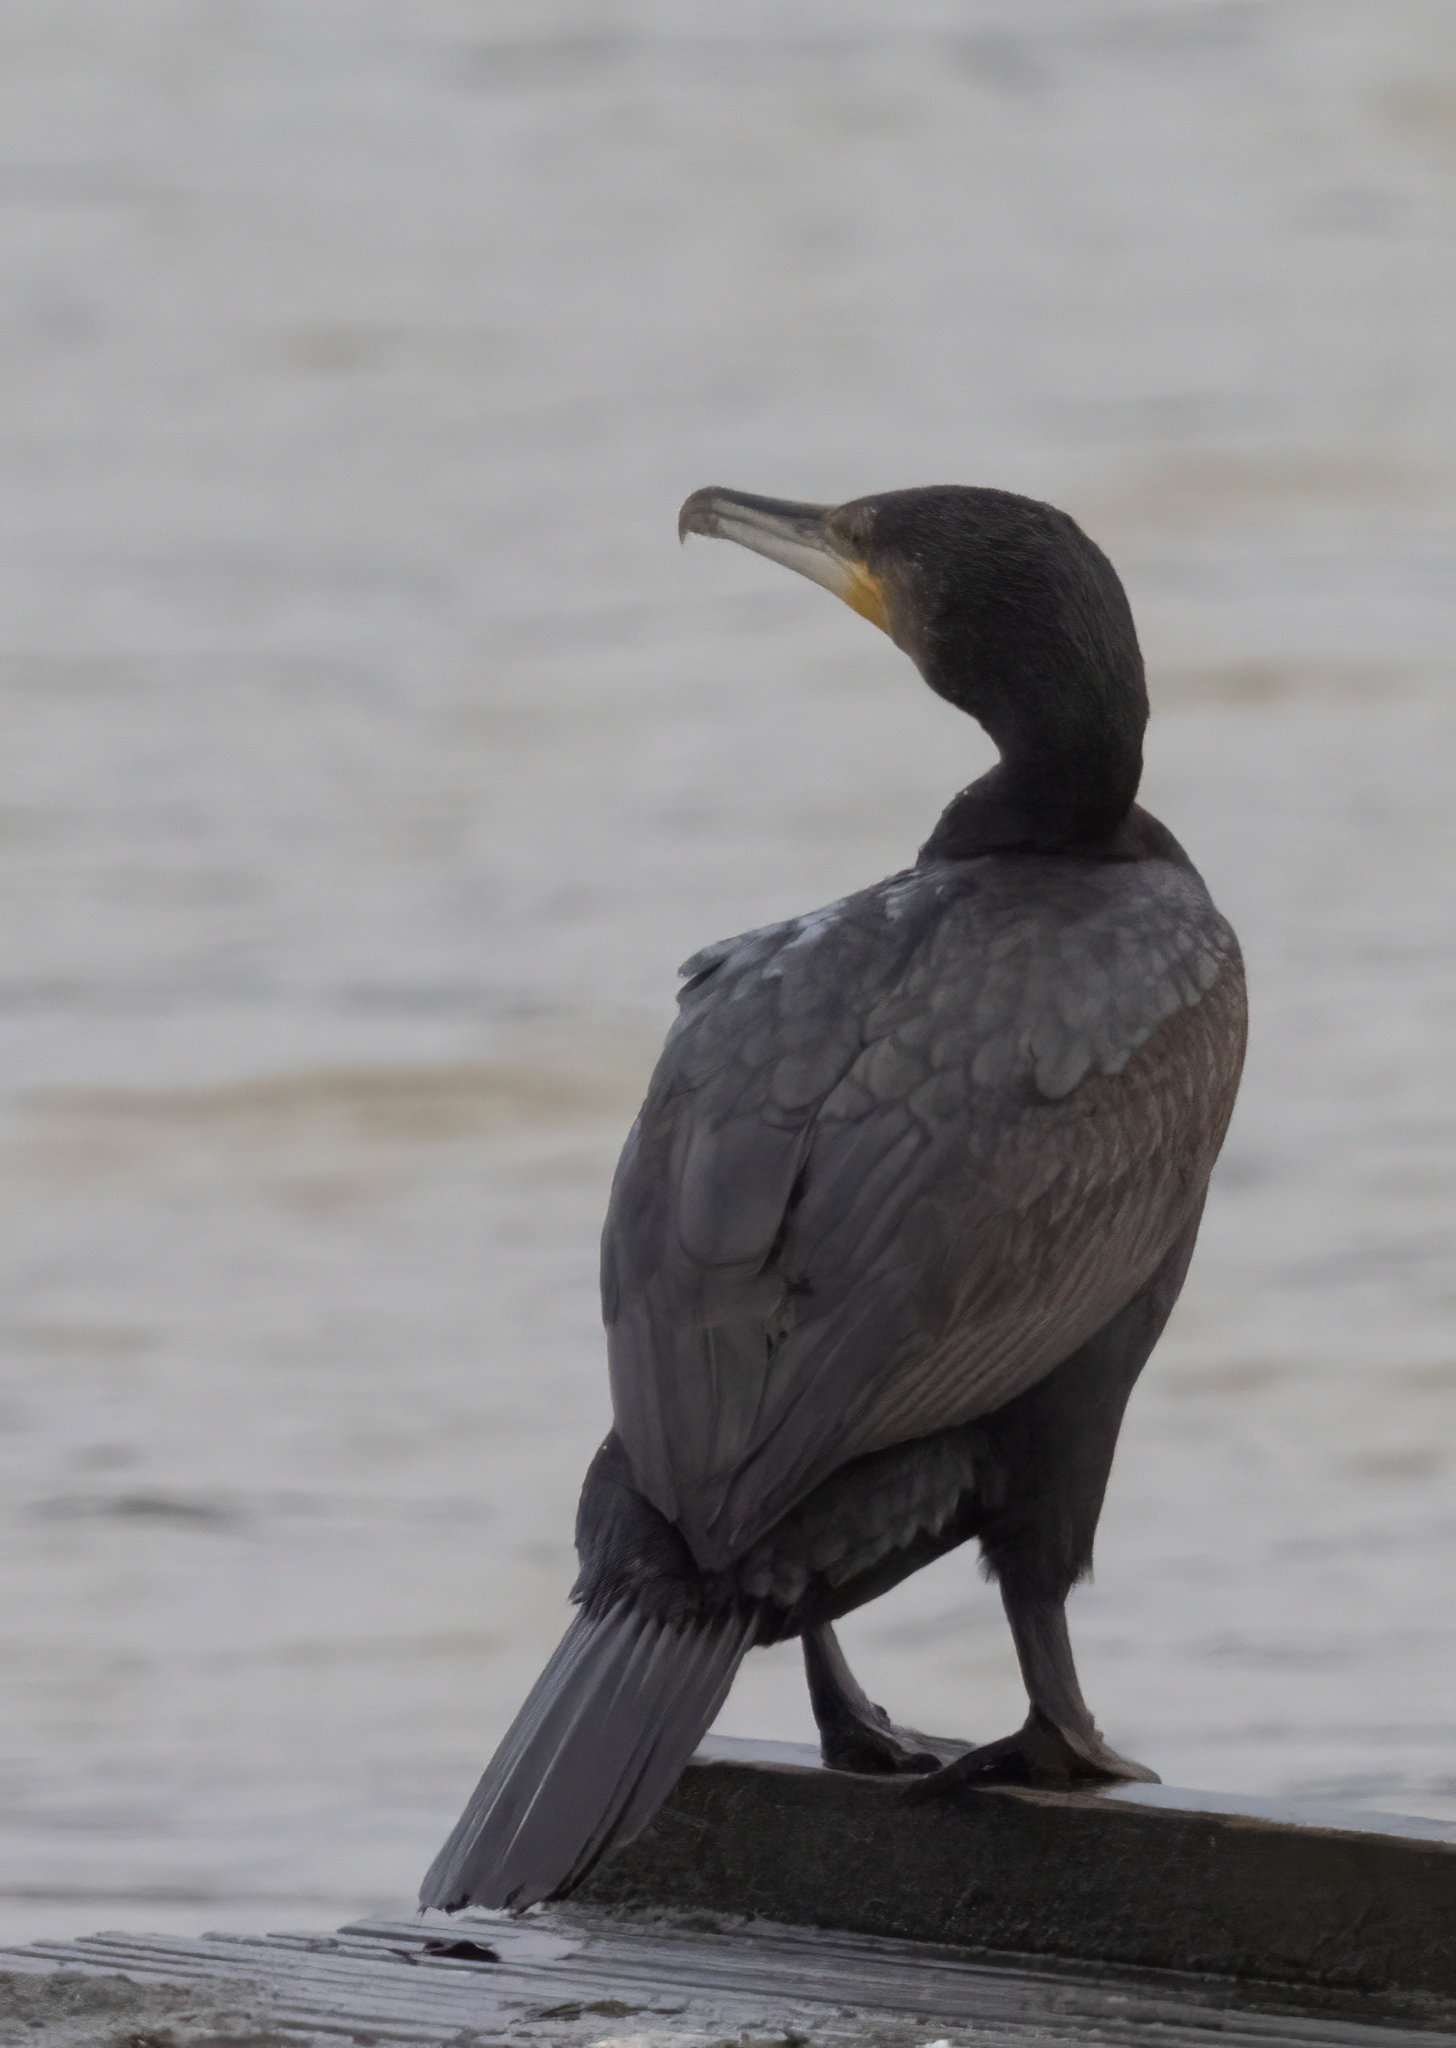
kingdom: Animalia
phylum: Chordata
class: Aves
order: Suliformes
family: Phalacrocoracidae
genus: Phalacrocorax
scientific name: Phalacrocorax carbo
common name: Great cormorant
